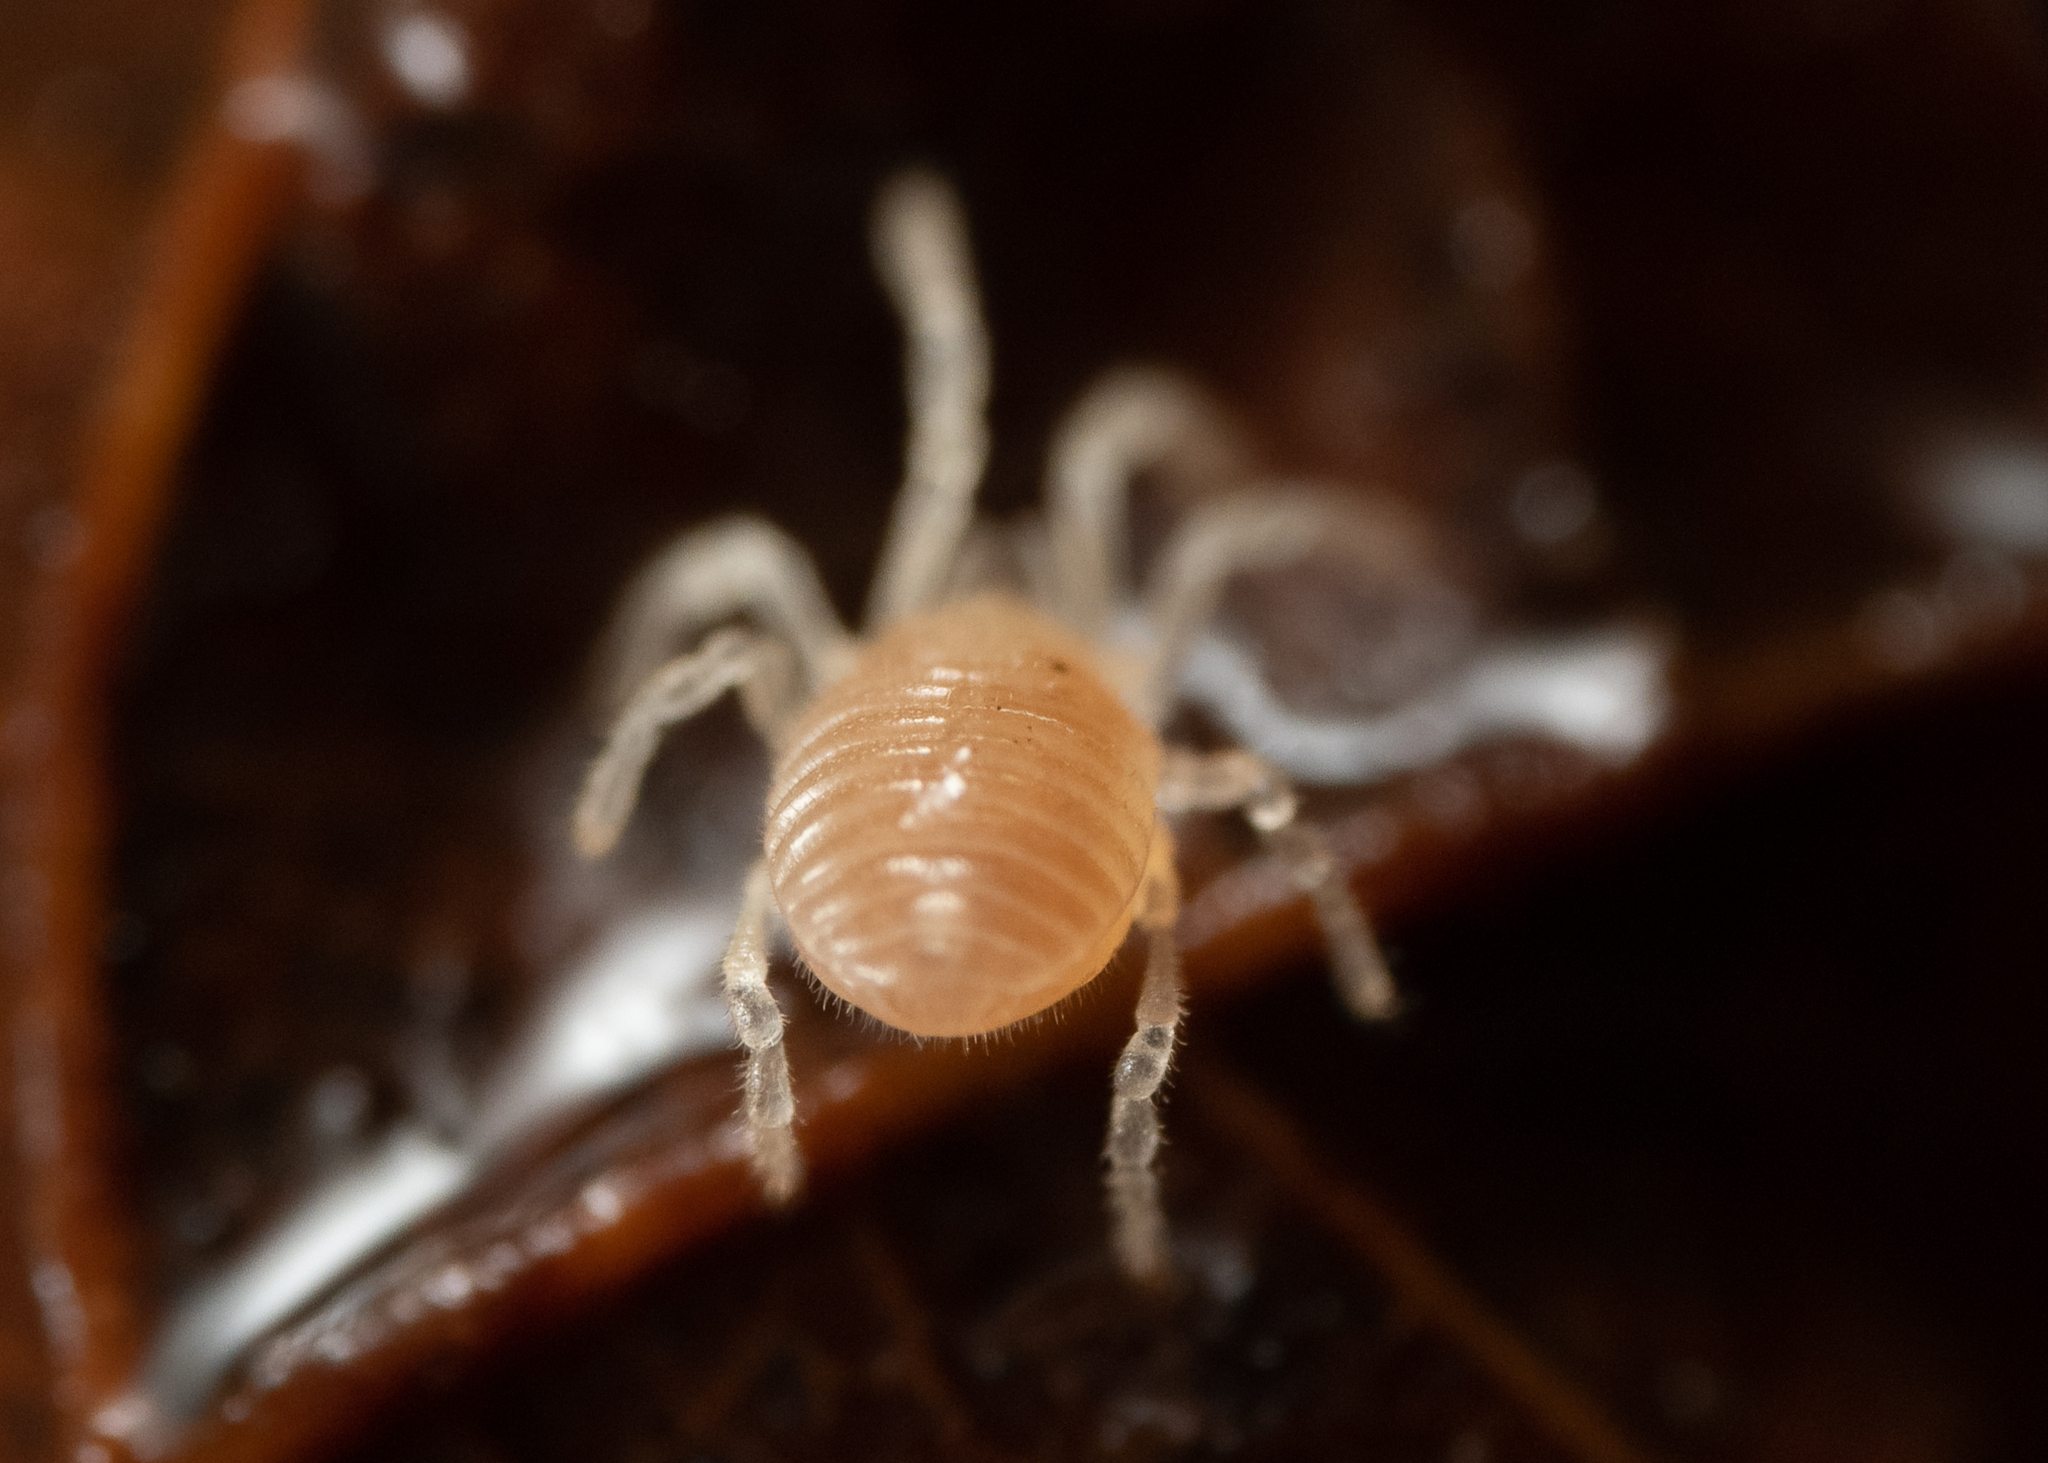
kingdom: Animalia
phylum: Arthropoda
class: Arachnida
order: Opiliones
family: Sironidae
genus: Siro
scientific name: Siro
